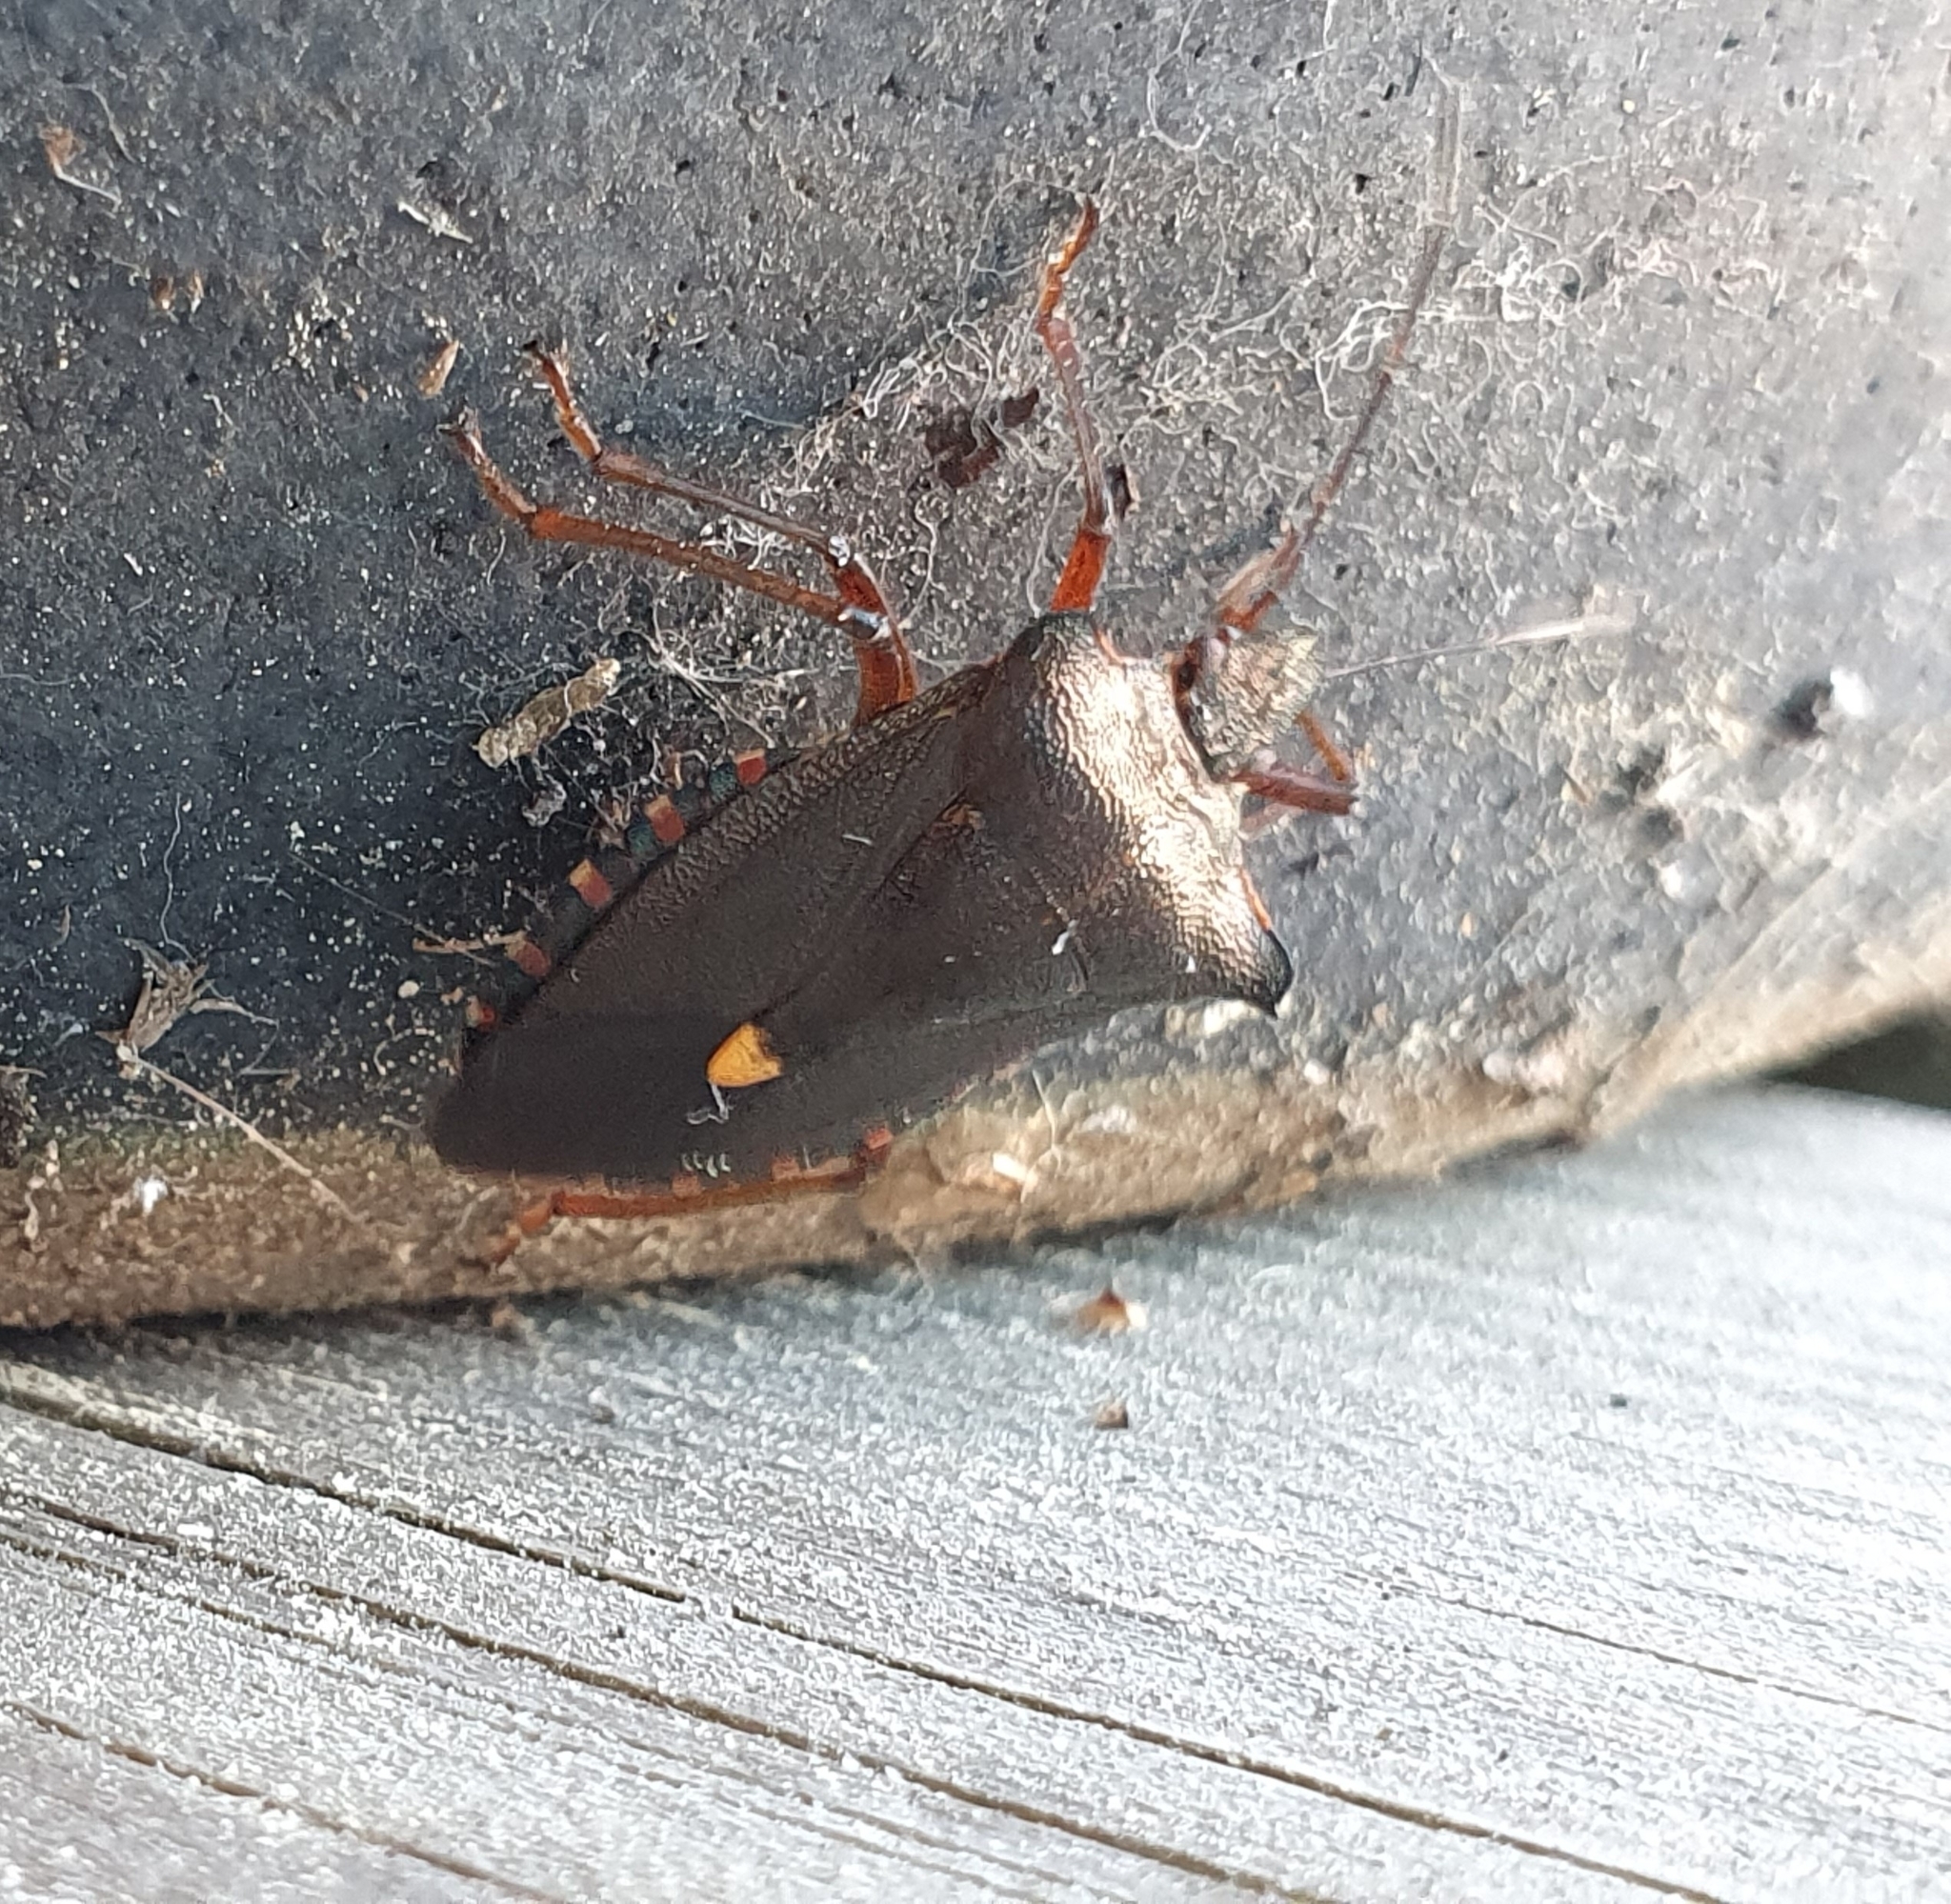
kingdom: Animalia
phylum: Arthropoda
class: Insecta
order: Hemiptera
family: Pentatomidae
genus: Pentatoma
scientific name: Pentatoma rufipes
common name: Forest bug
